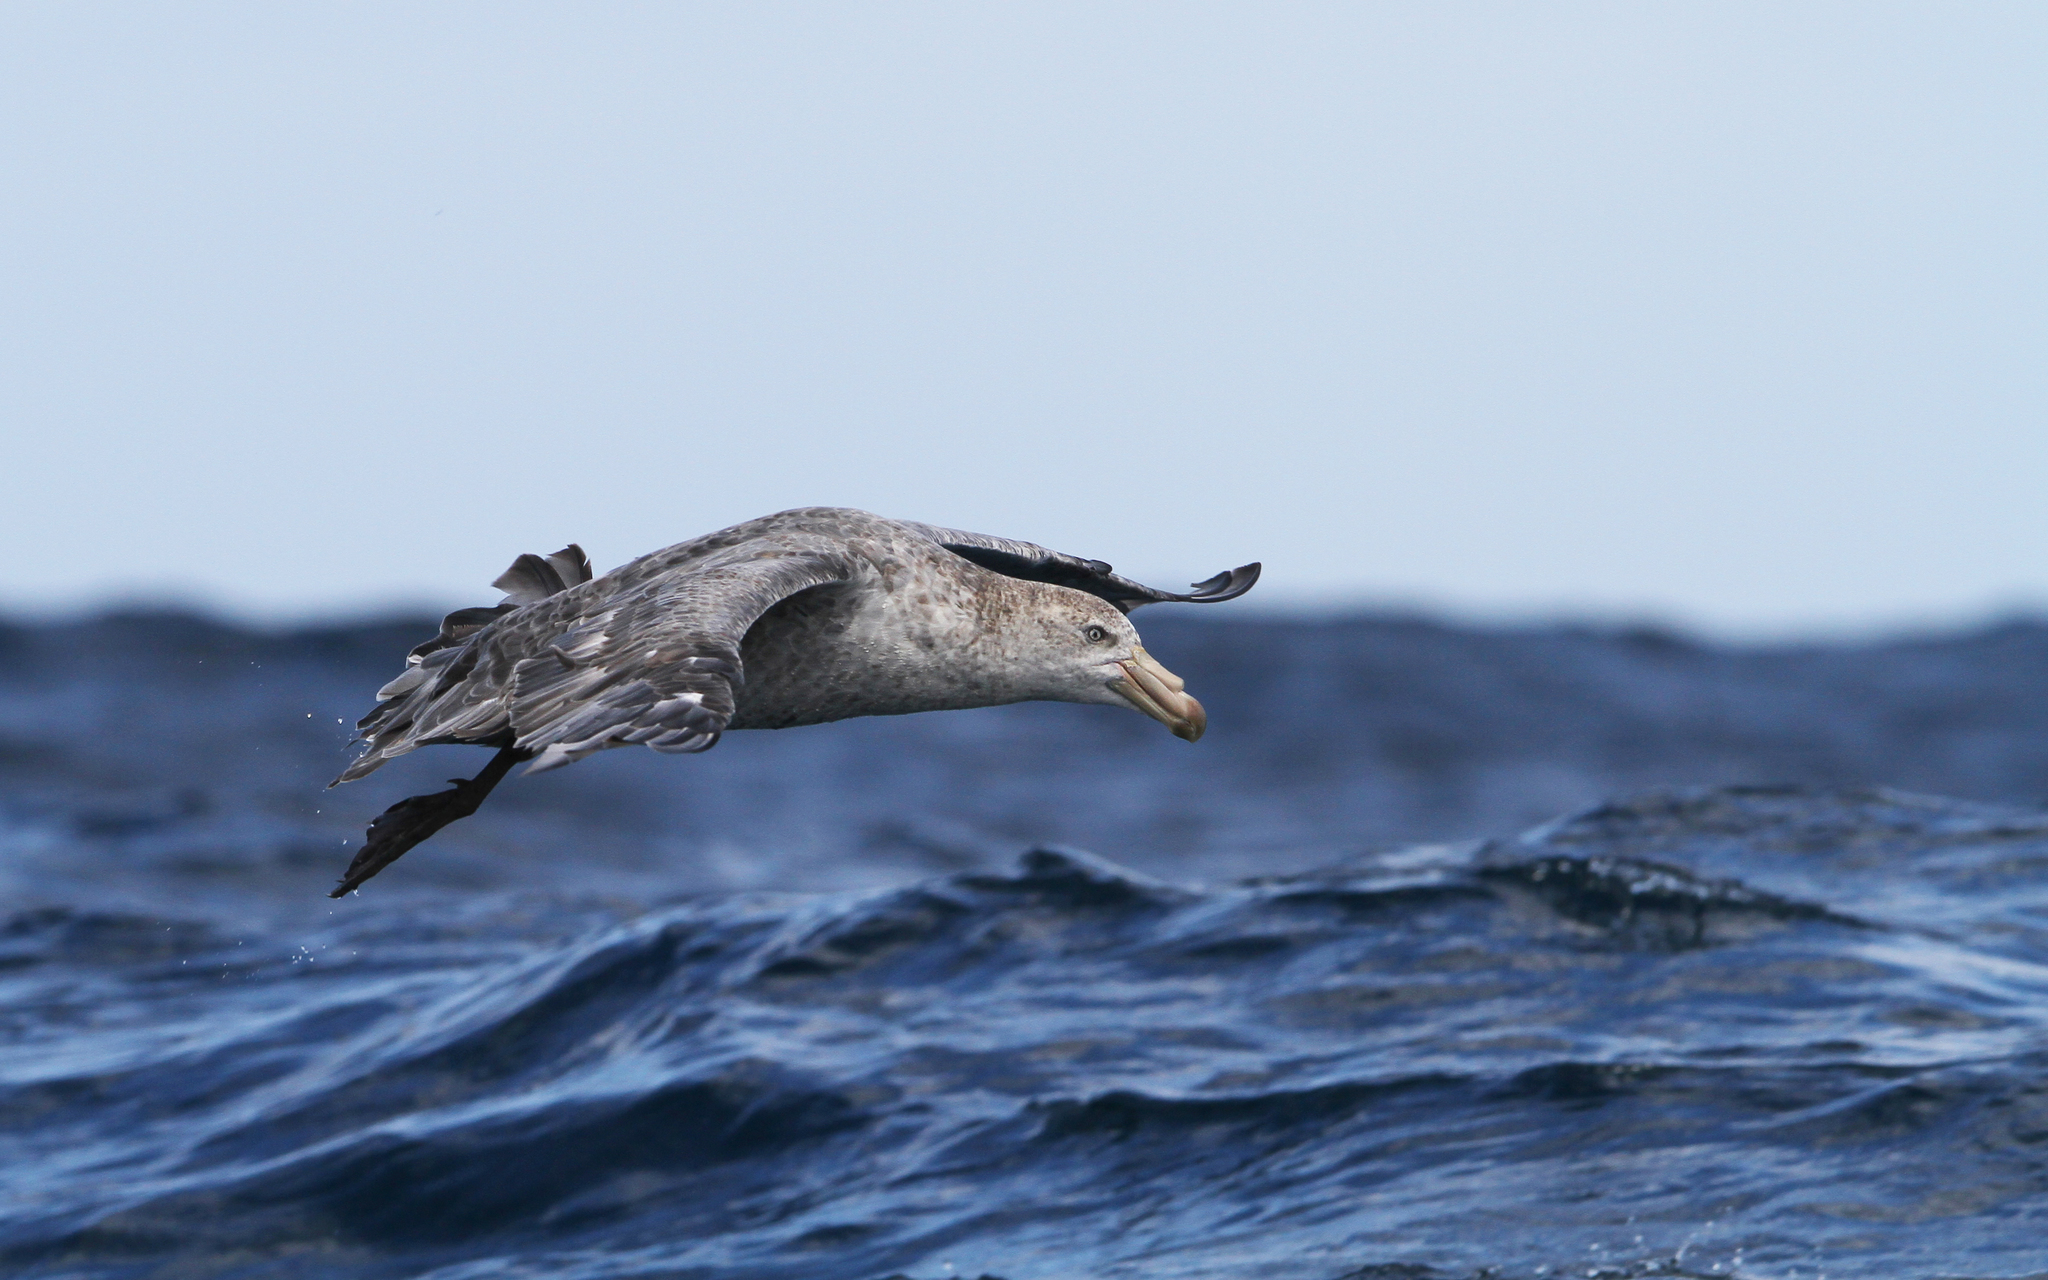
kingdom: Animalia
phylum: Chordata
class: Aves
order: Procellariiformes
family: Procellariidae
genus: Macronectes
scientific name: Macronectes halli
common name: Northern giant petrel
